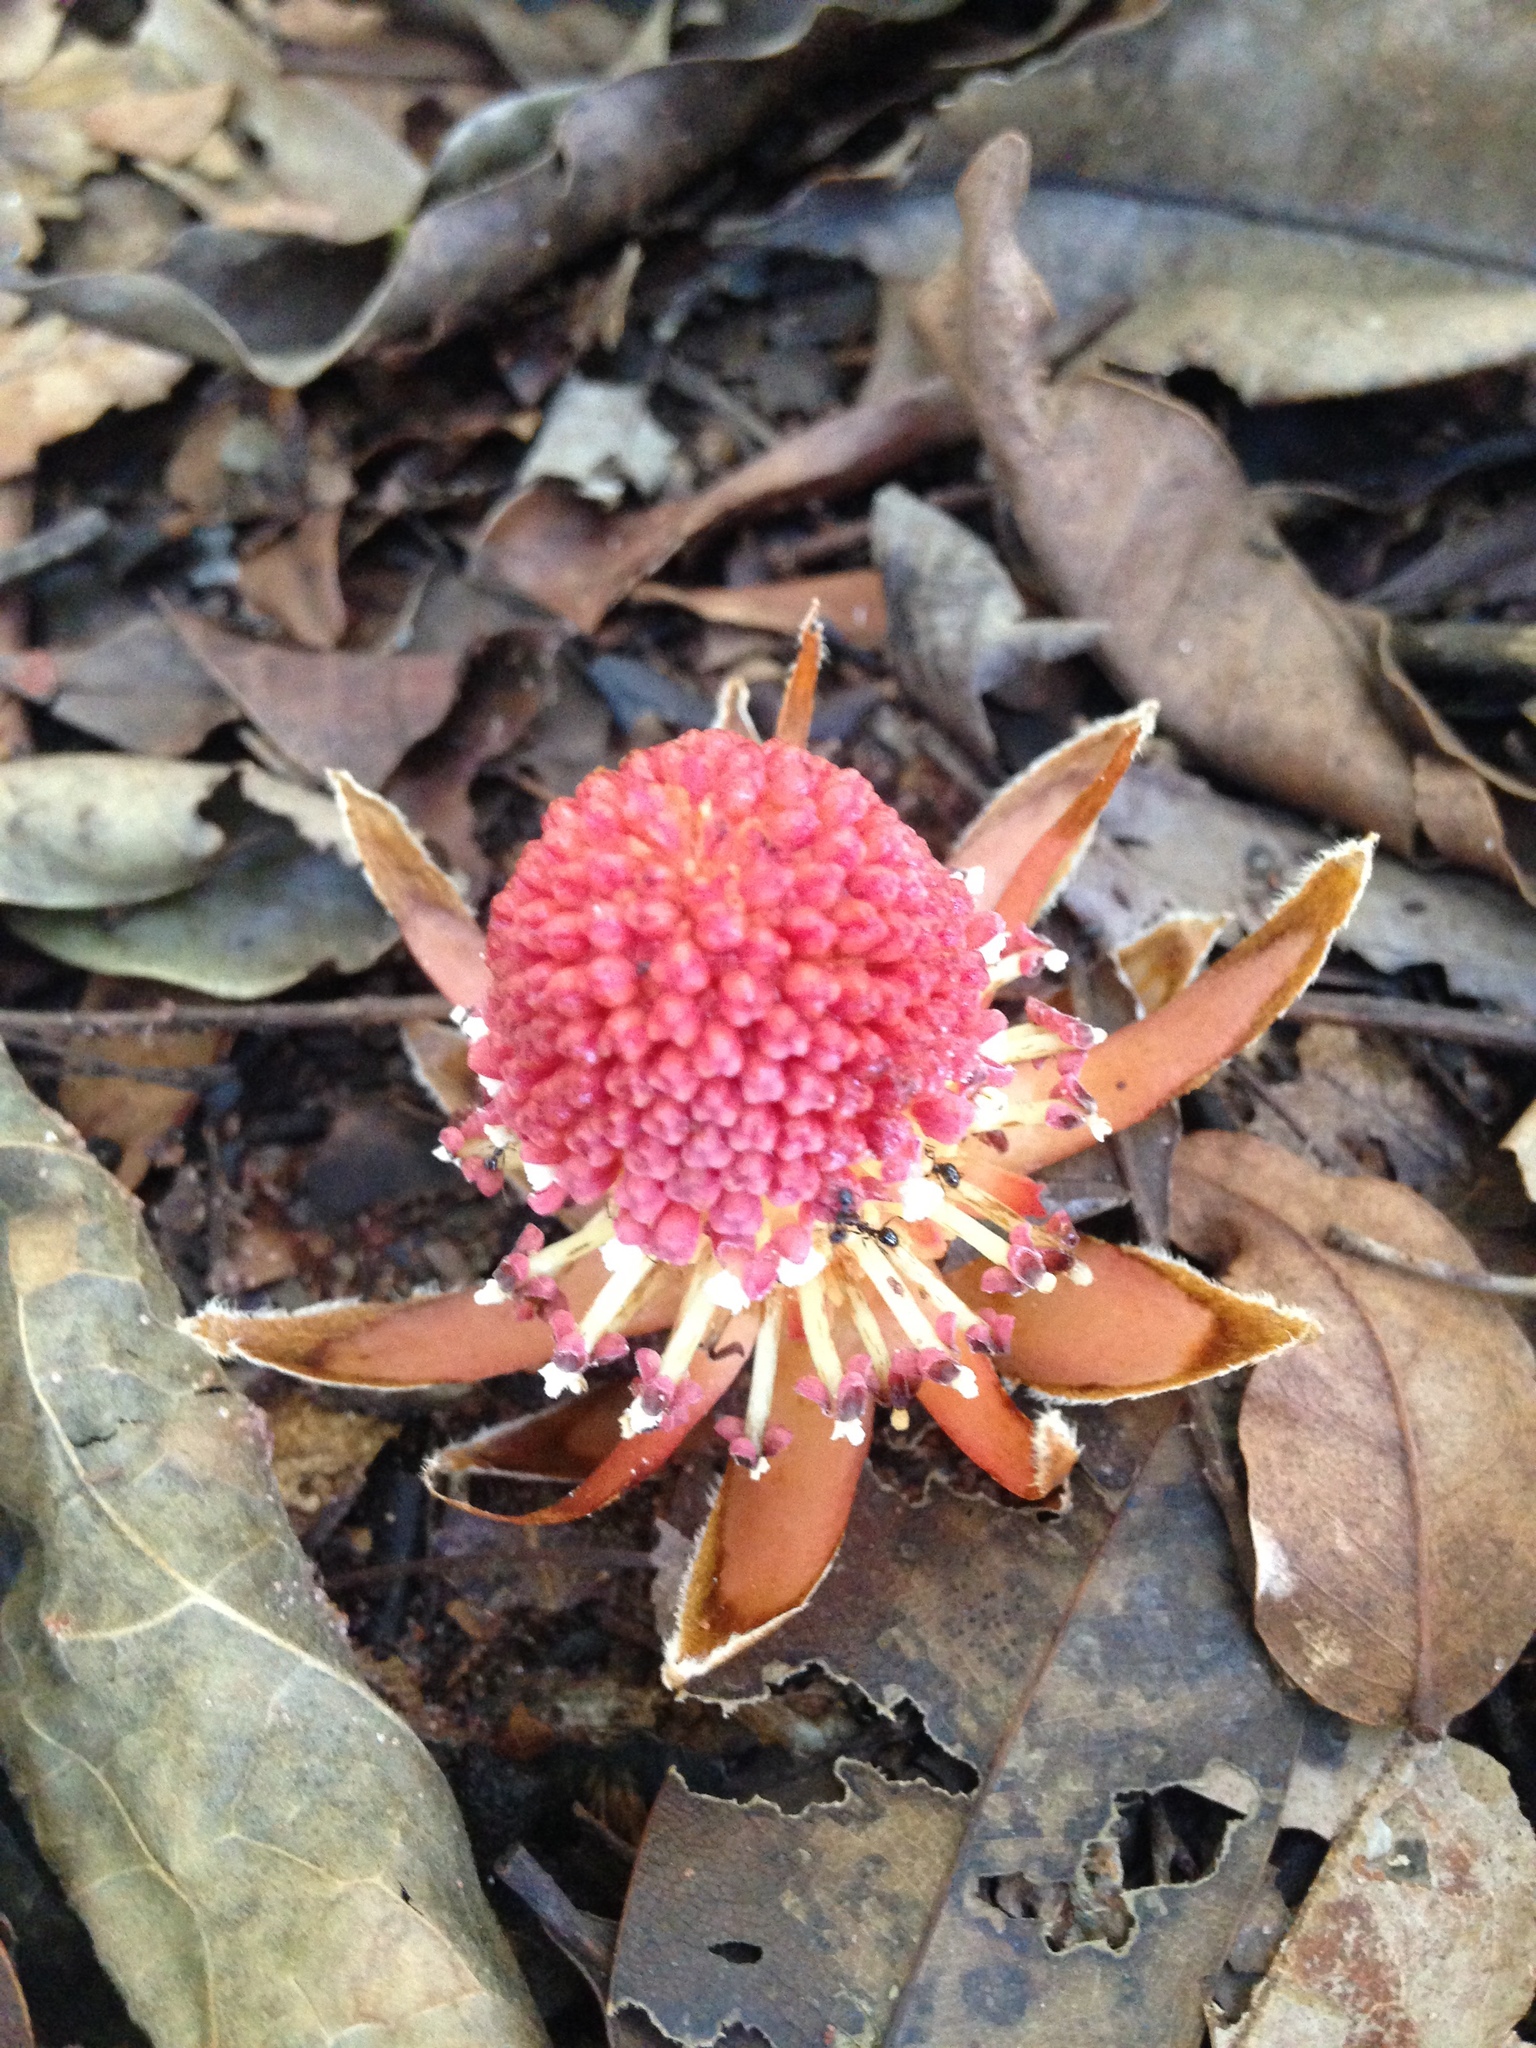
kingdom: Plantae
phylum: Tracheophyta
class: Magnoliopsida
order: Santalales
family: Balanophoraceae
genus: Langsdorffia
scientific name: Langsdorffia hypogaea
